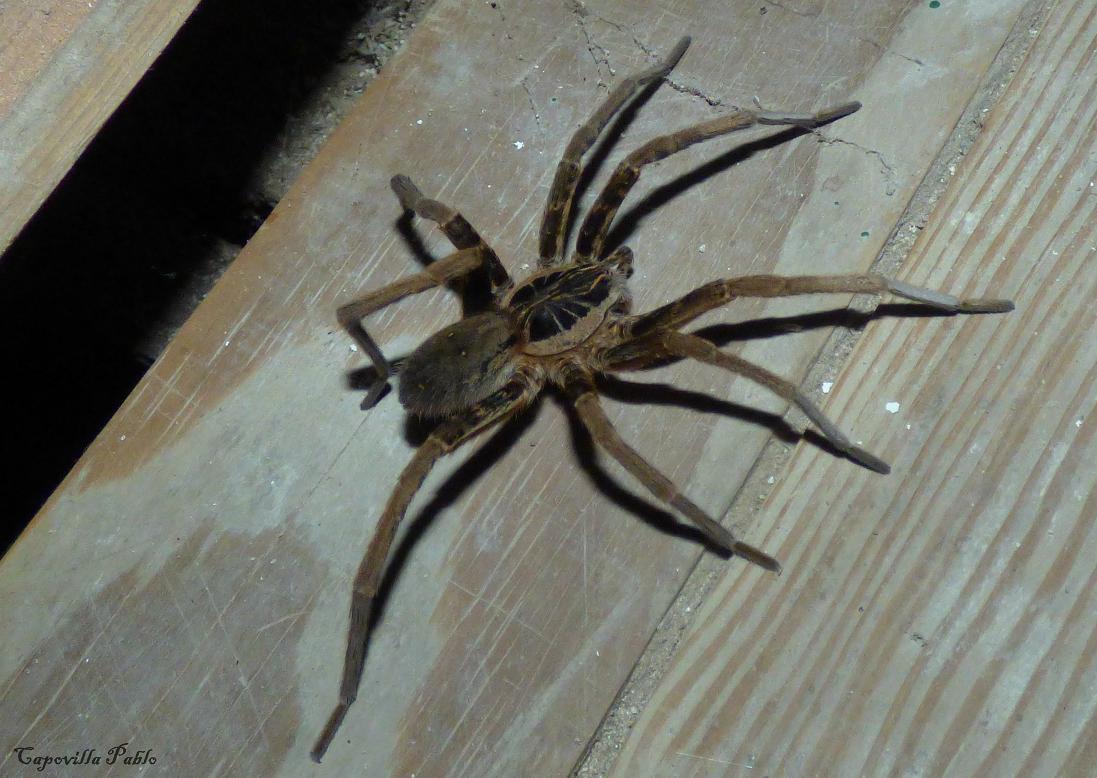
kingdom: Animalia
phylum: Arthropoda
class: Arachnida
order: Araneae
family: Ctenidae
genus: Ancylometes
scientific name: Ancylometes concolor
